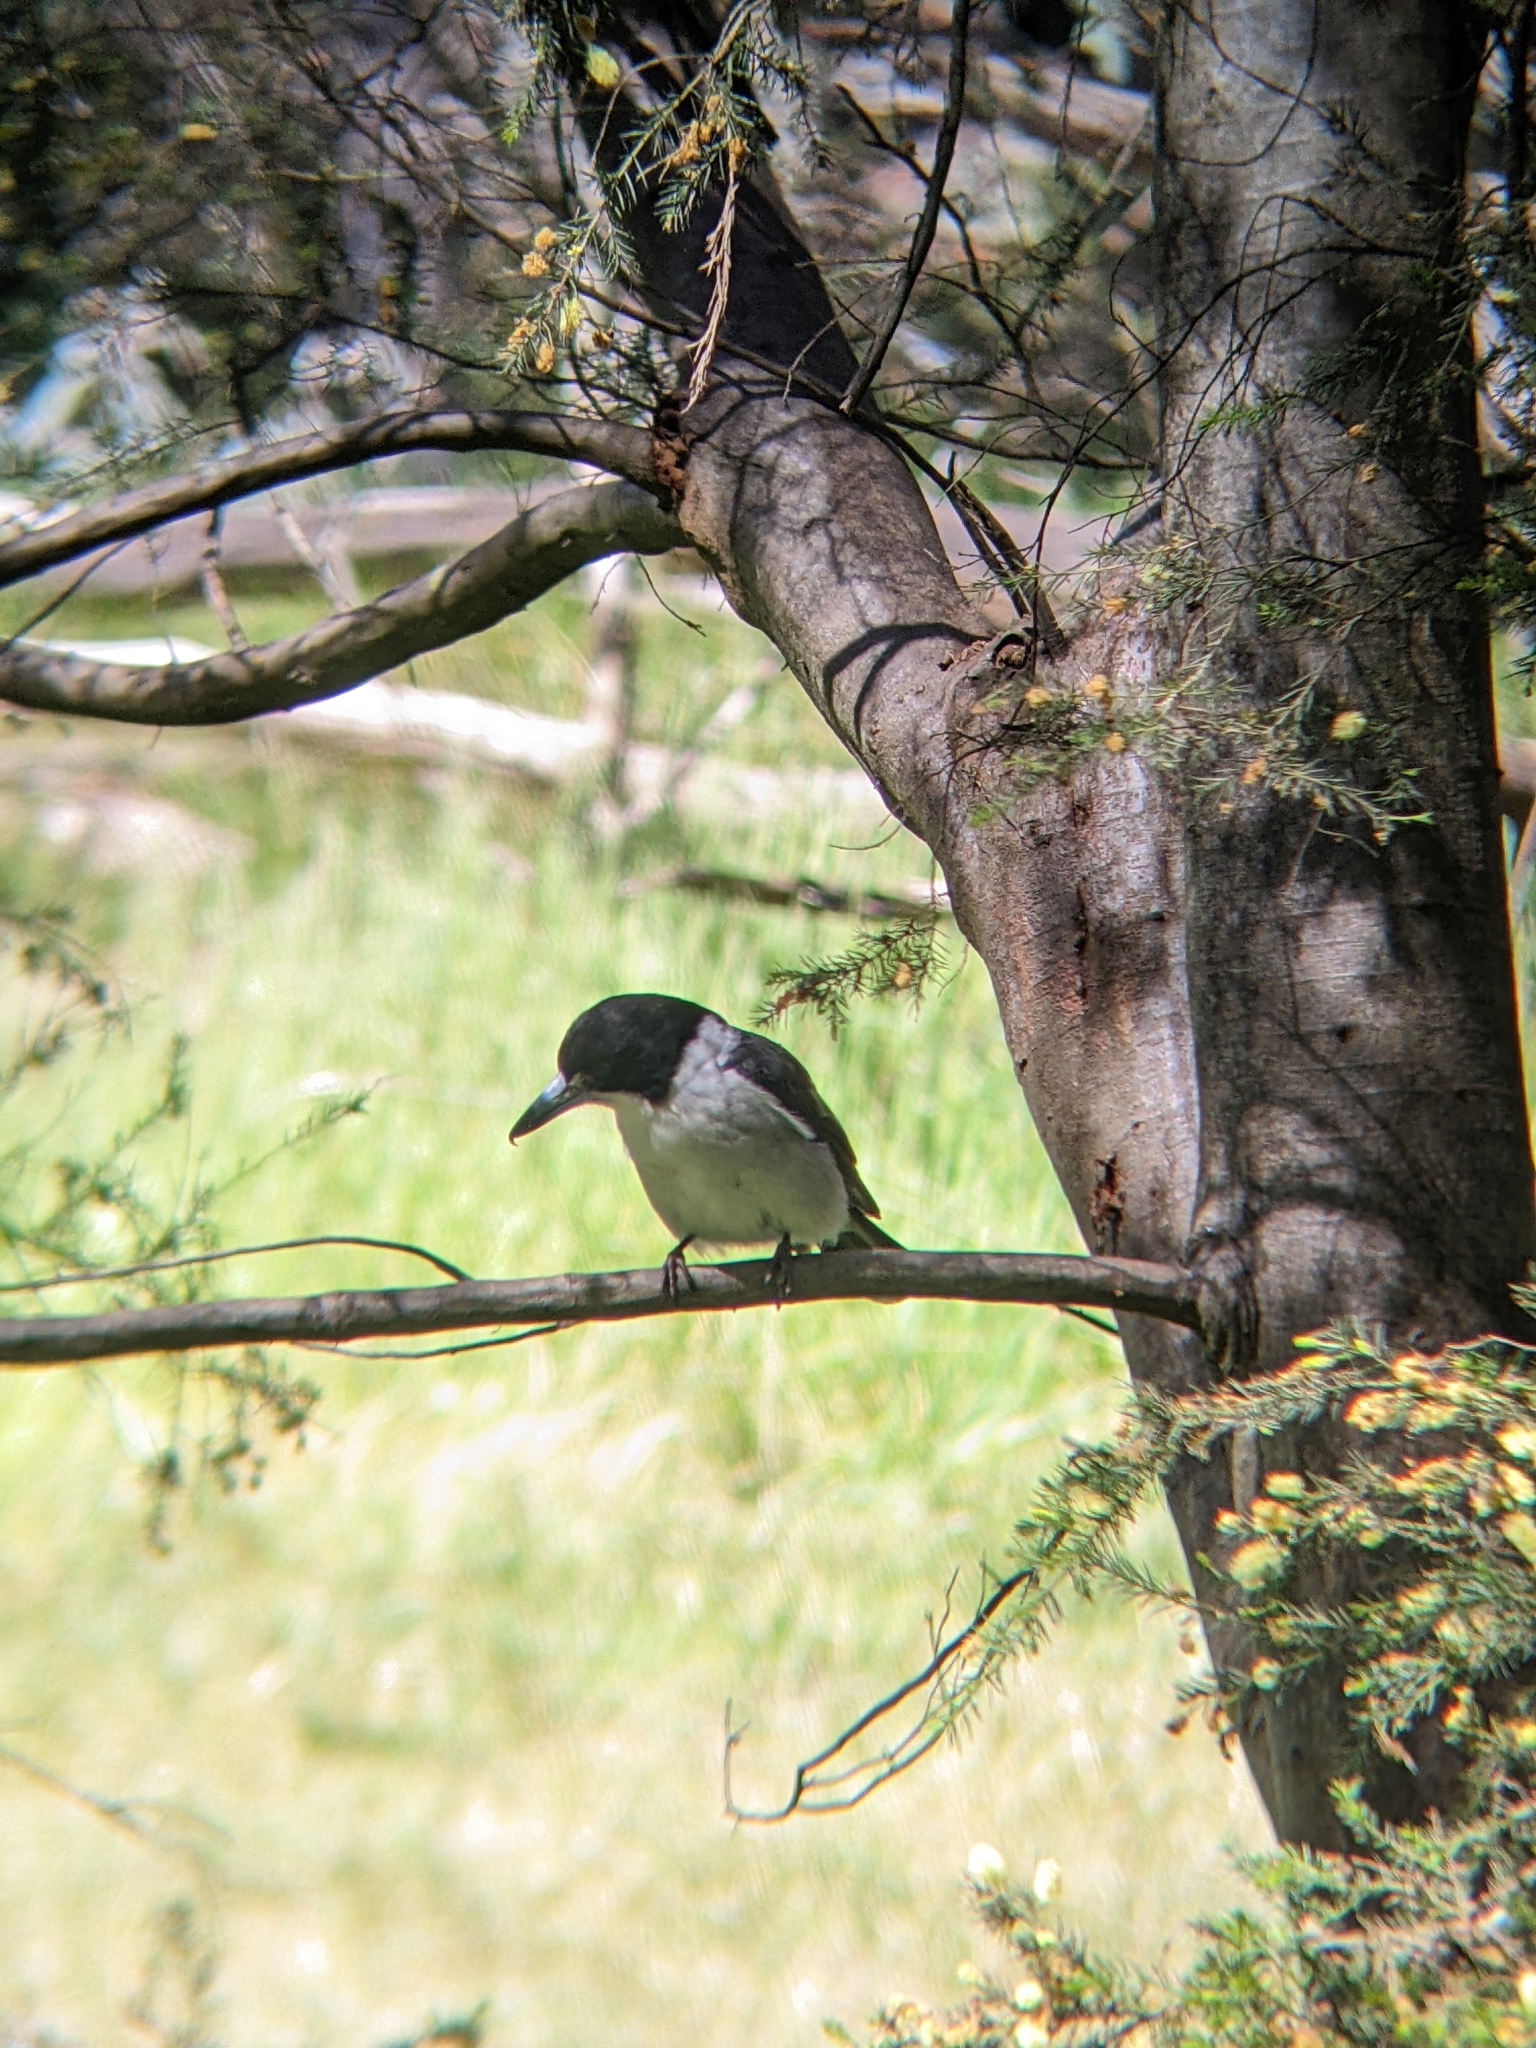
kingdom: Animalia
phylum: Chordata
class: Aves
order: Passeriformes
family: Cracticidae
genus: Cracticus
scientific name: Cracticus torquatus
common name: Grey butcherbird
